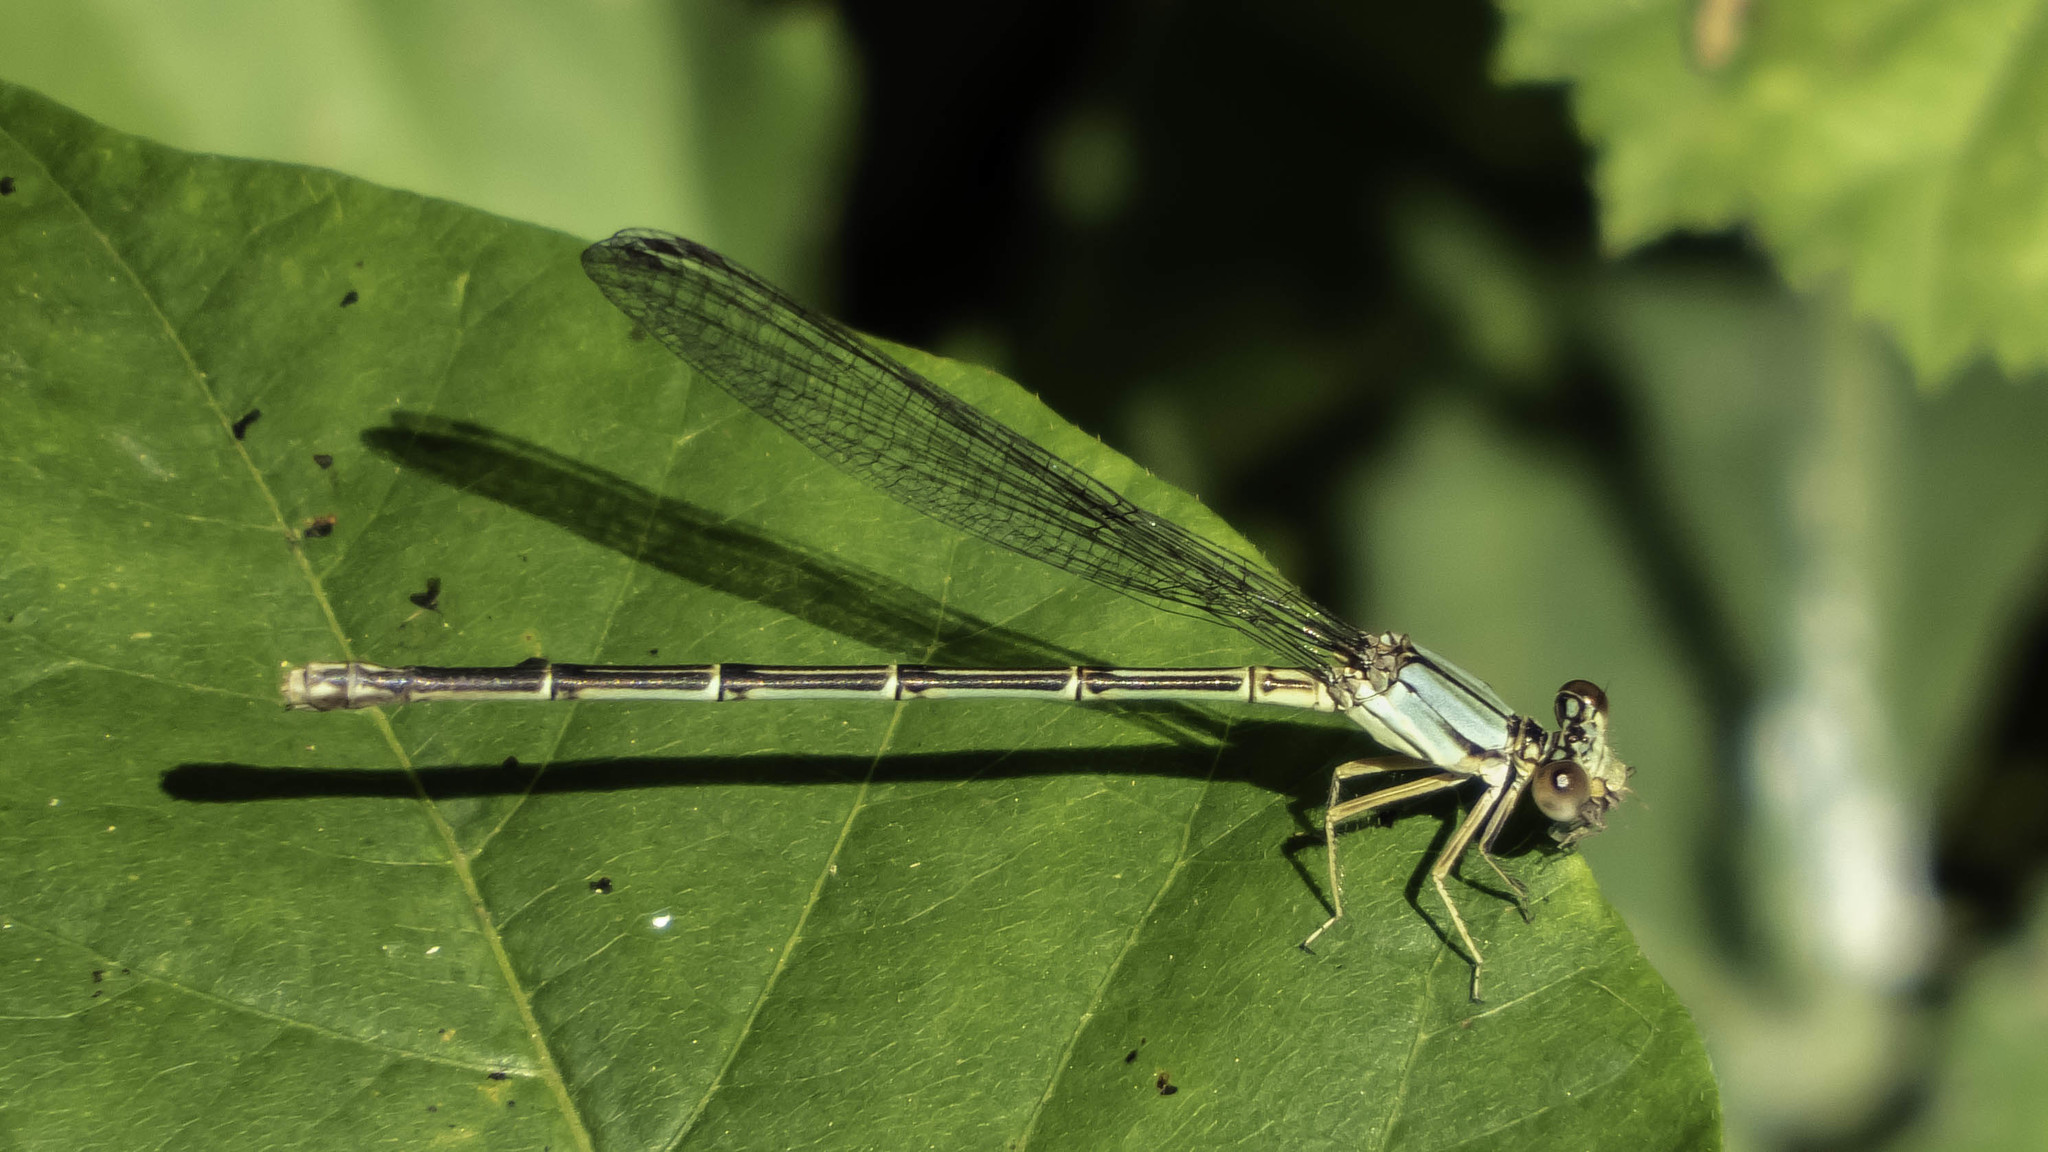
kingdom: Animalia
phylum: Arthropoda
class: Insecta
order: Odonata
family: Coenagrionidae
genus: Argia
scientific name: Argia apicalis
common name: Blue-fronted dancer
